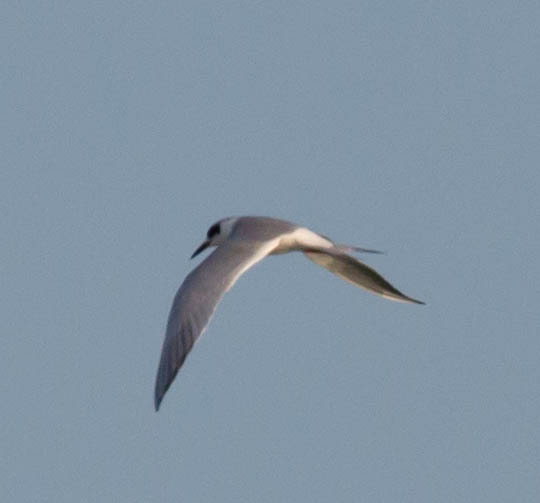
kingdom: Animalia
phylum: Chordata
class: Aves
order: Charadriiformes
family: Laridae
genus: Sterna
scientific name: Sterna forsteri
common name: Forster's tern
